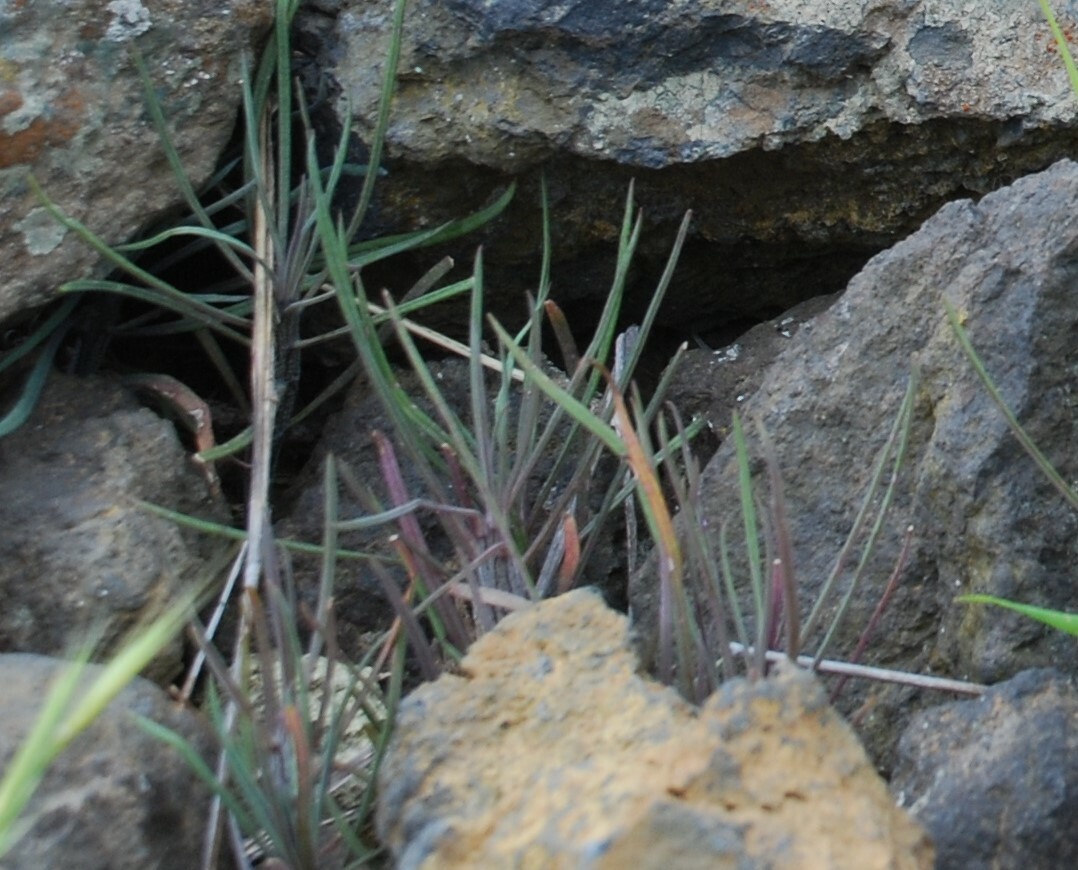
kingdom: Plantae
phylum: Tracheophyta
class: Magnoliopsida
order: Asterales
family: Asteraceae
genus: Kleinia
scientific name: Kleinia neriifolia
